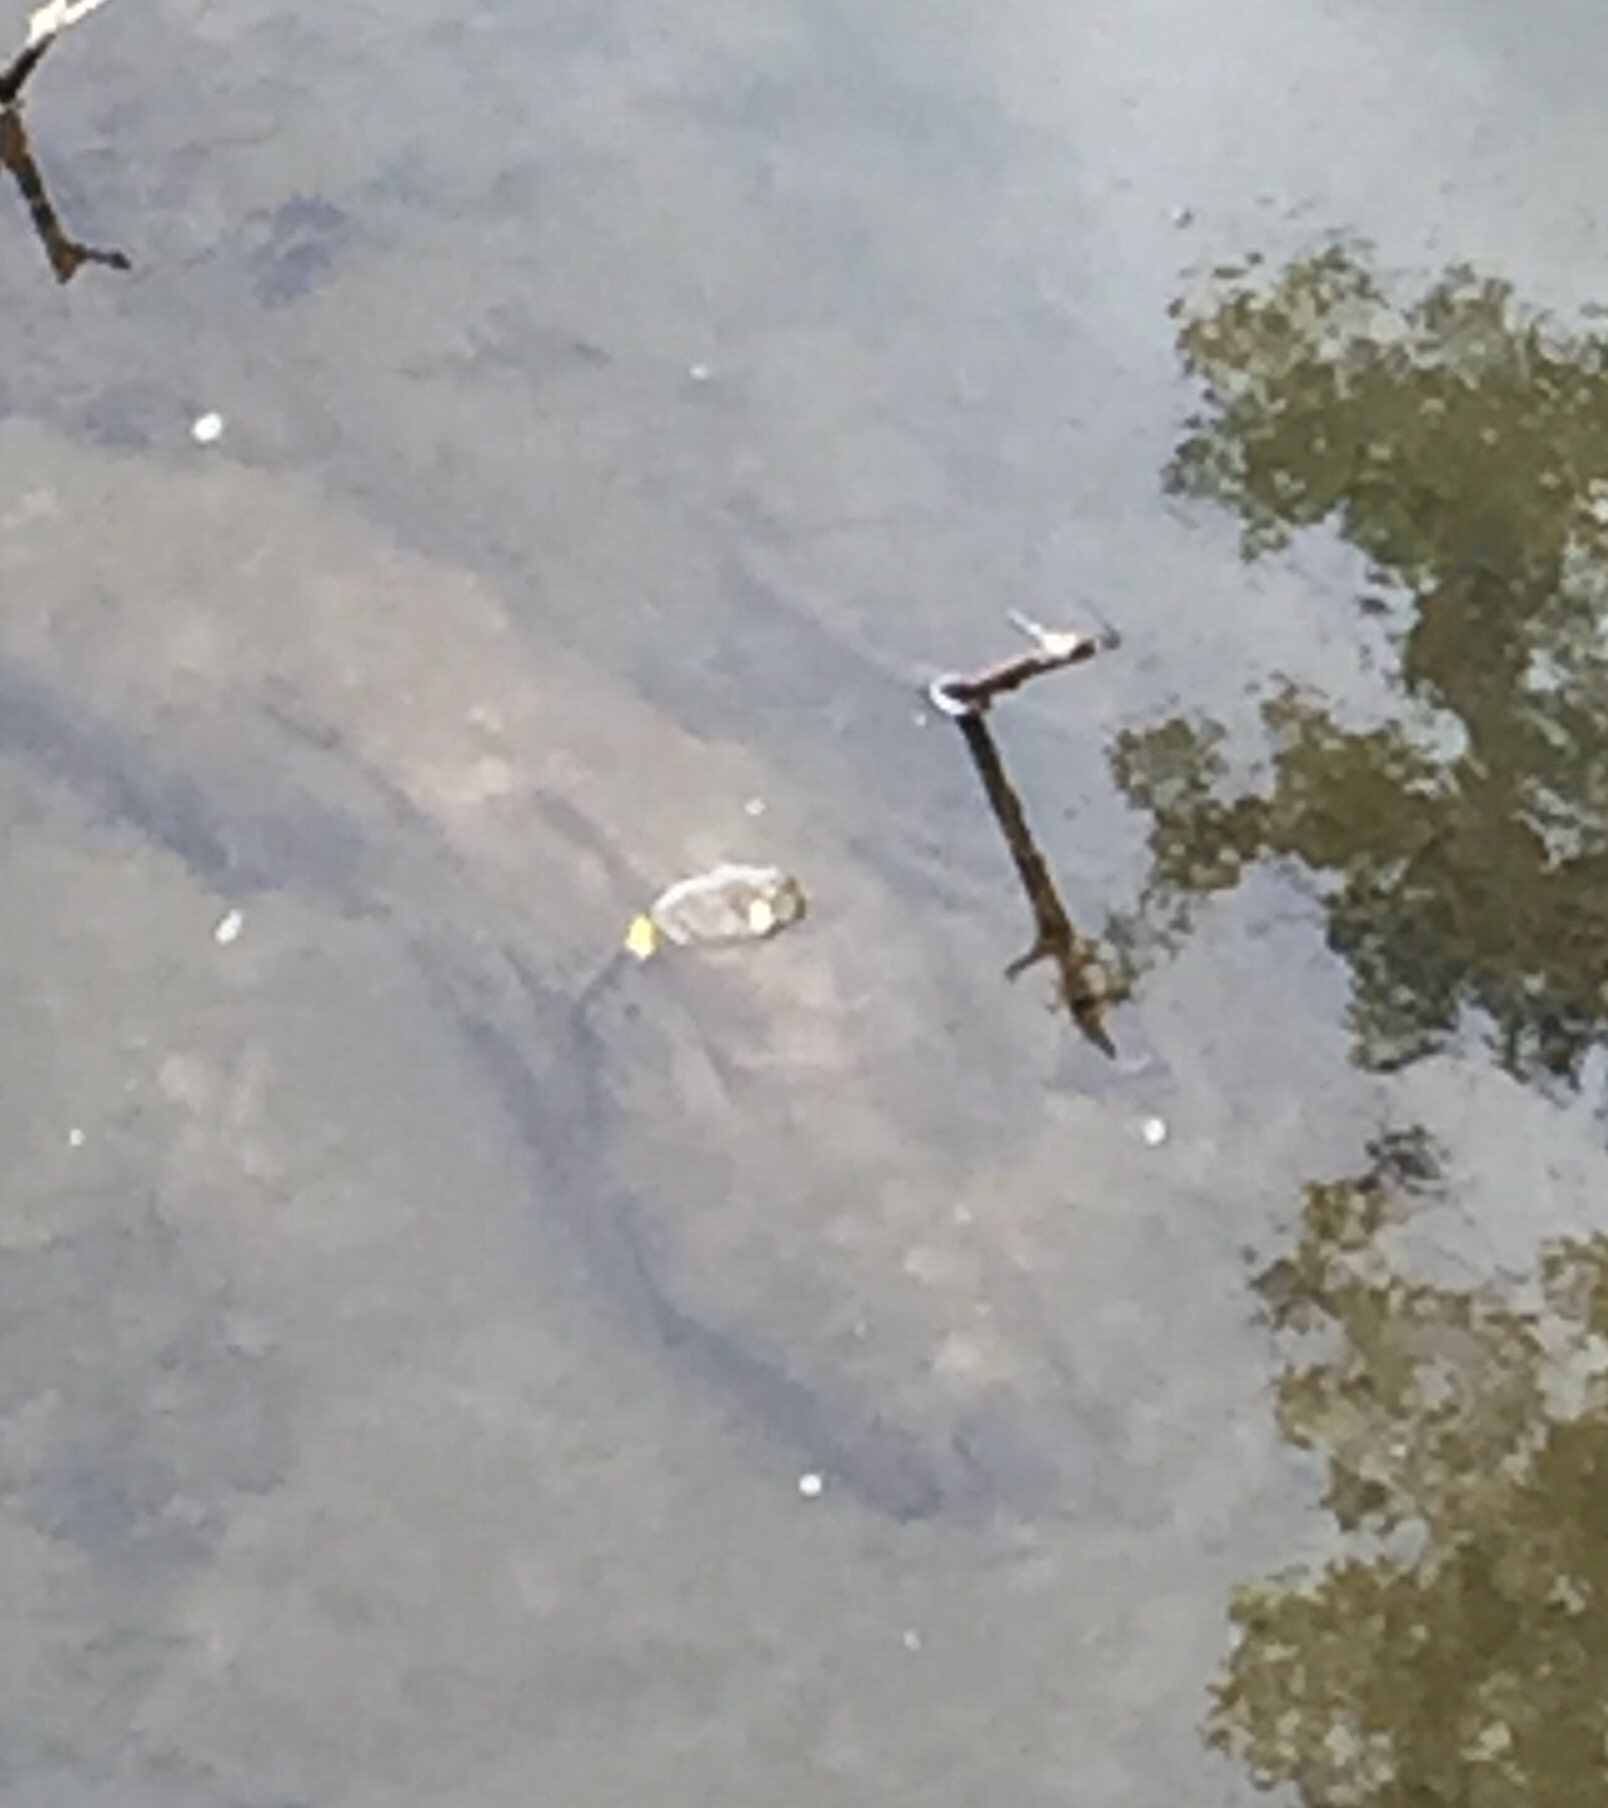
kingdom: Animalia
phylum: Chordata
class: Testudines
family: Trionychidae
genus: Apalone
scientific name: Apalone spinifera
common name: Spiny softshell turtle
